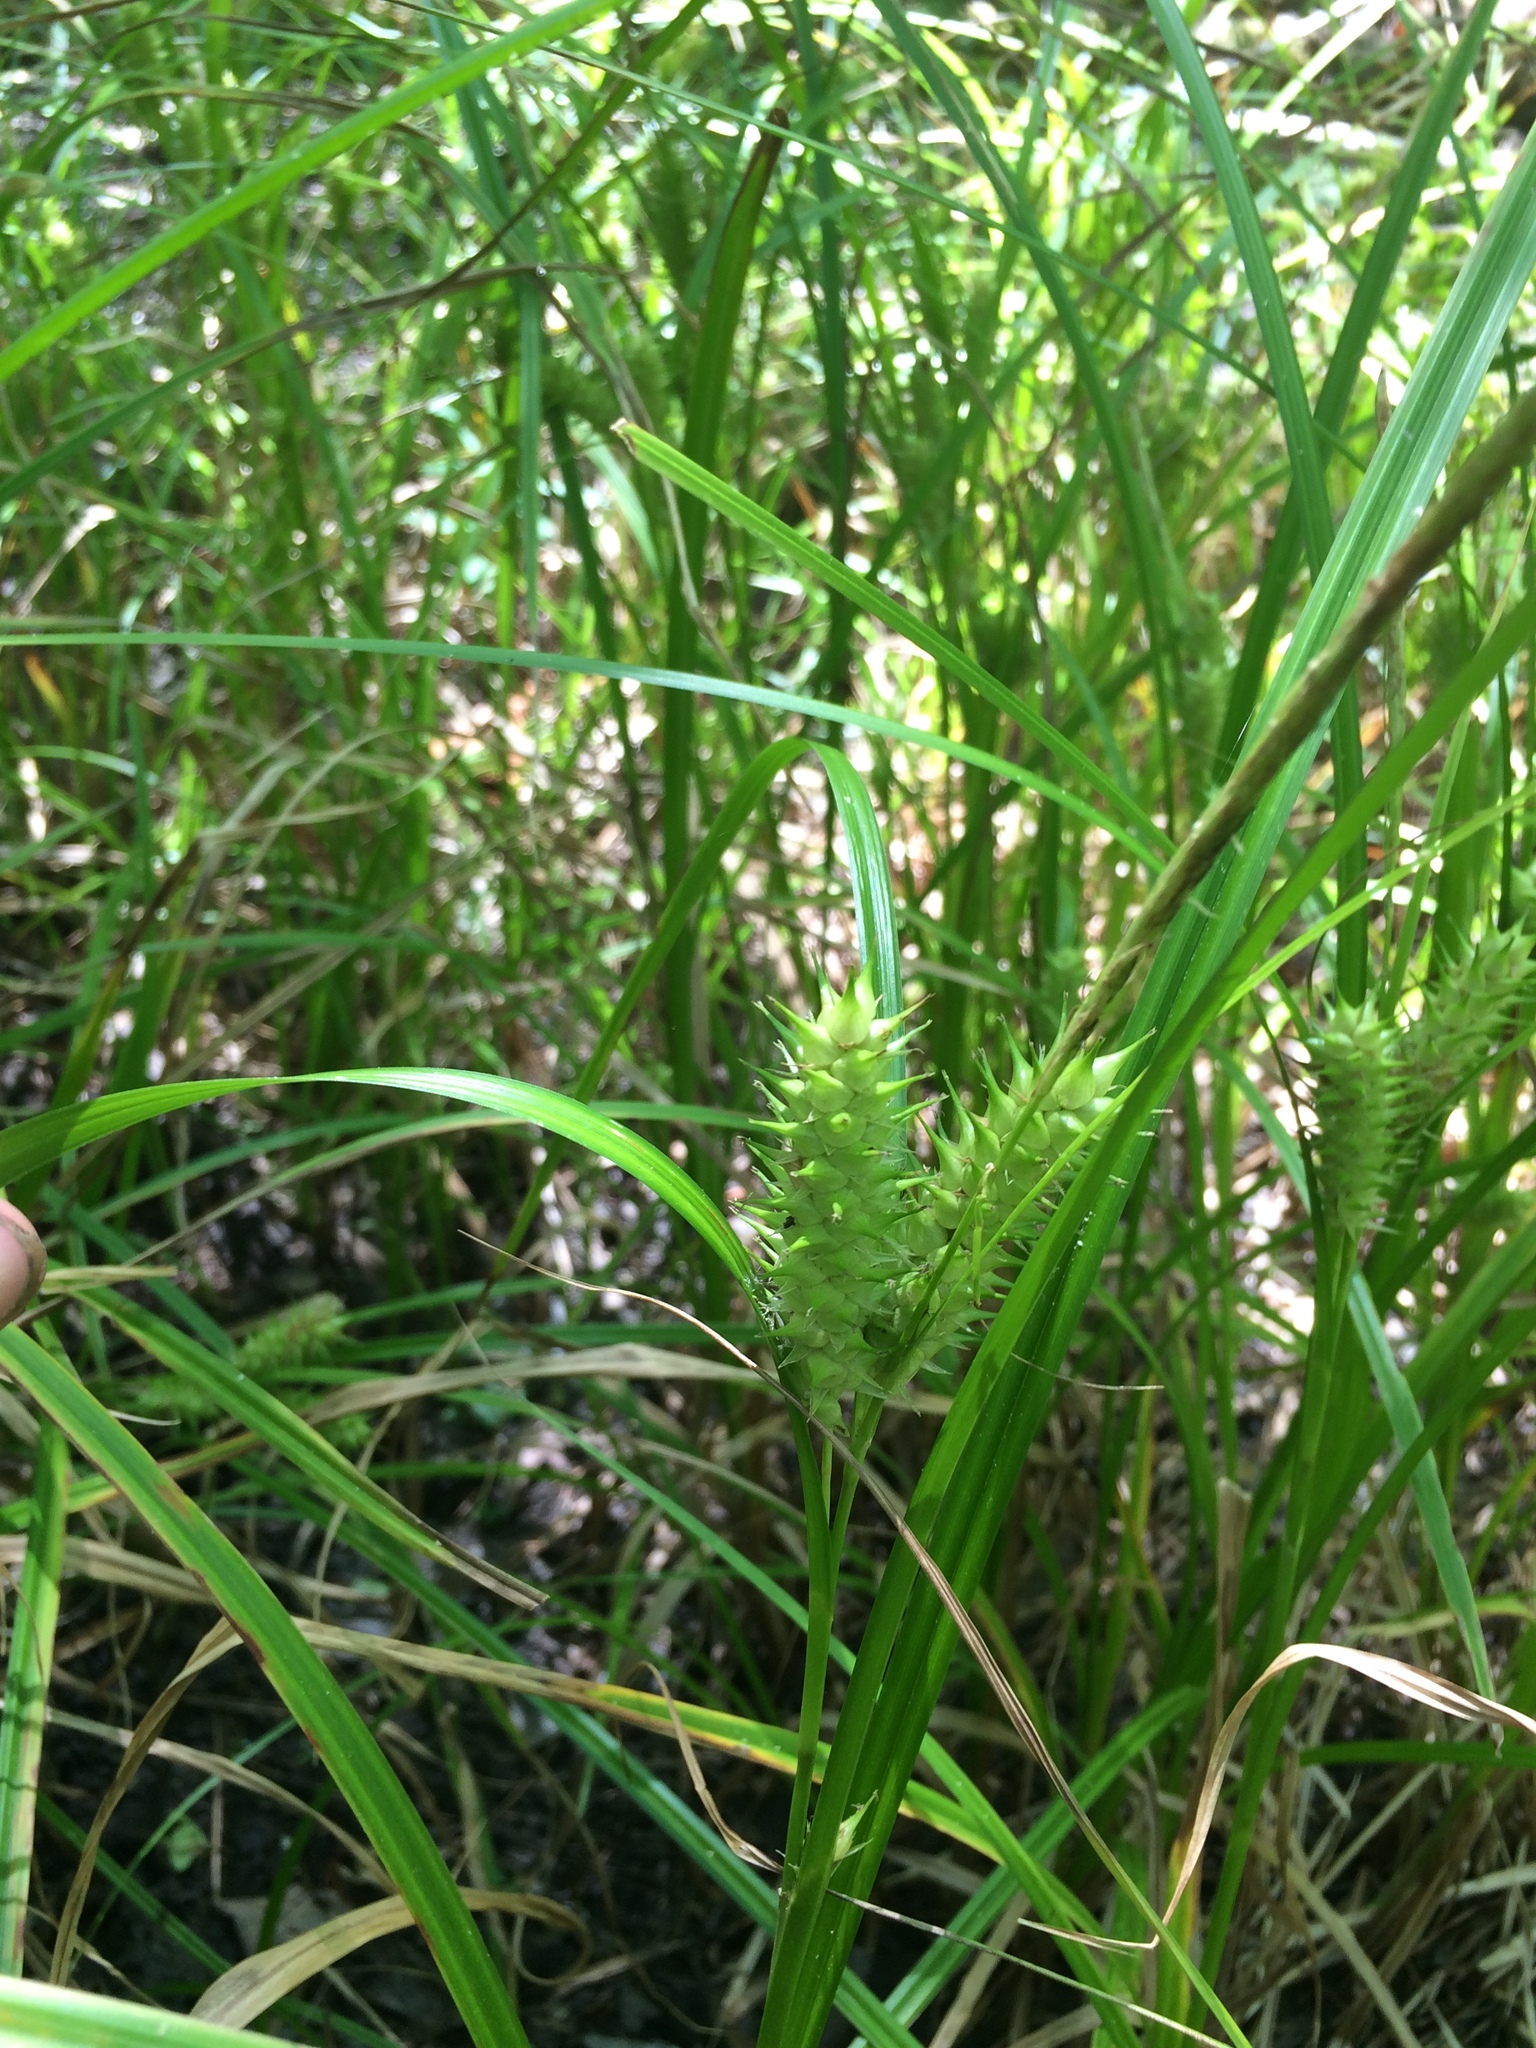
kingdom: Plantae
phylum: Tracheophyta
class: Liliopsida
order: Poales
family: Cyperaceae
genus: Carex
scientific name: Carex lupuliformis
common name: False hop sedge
